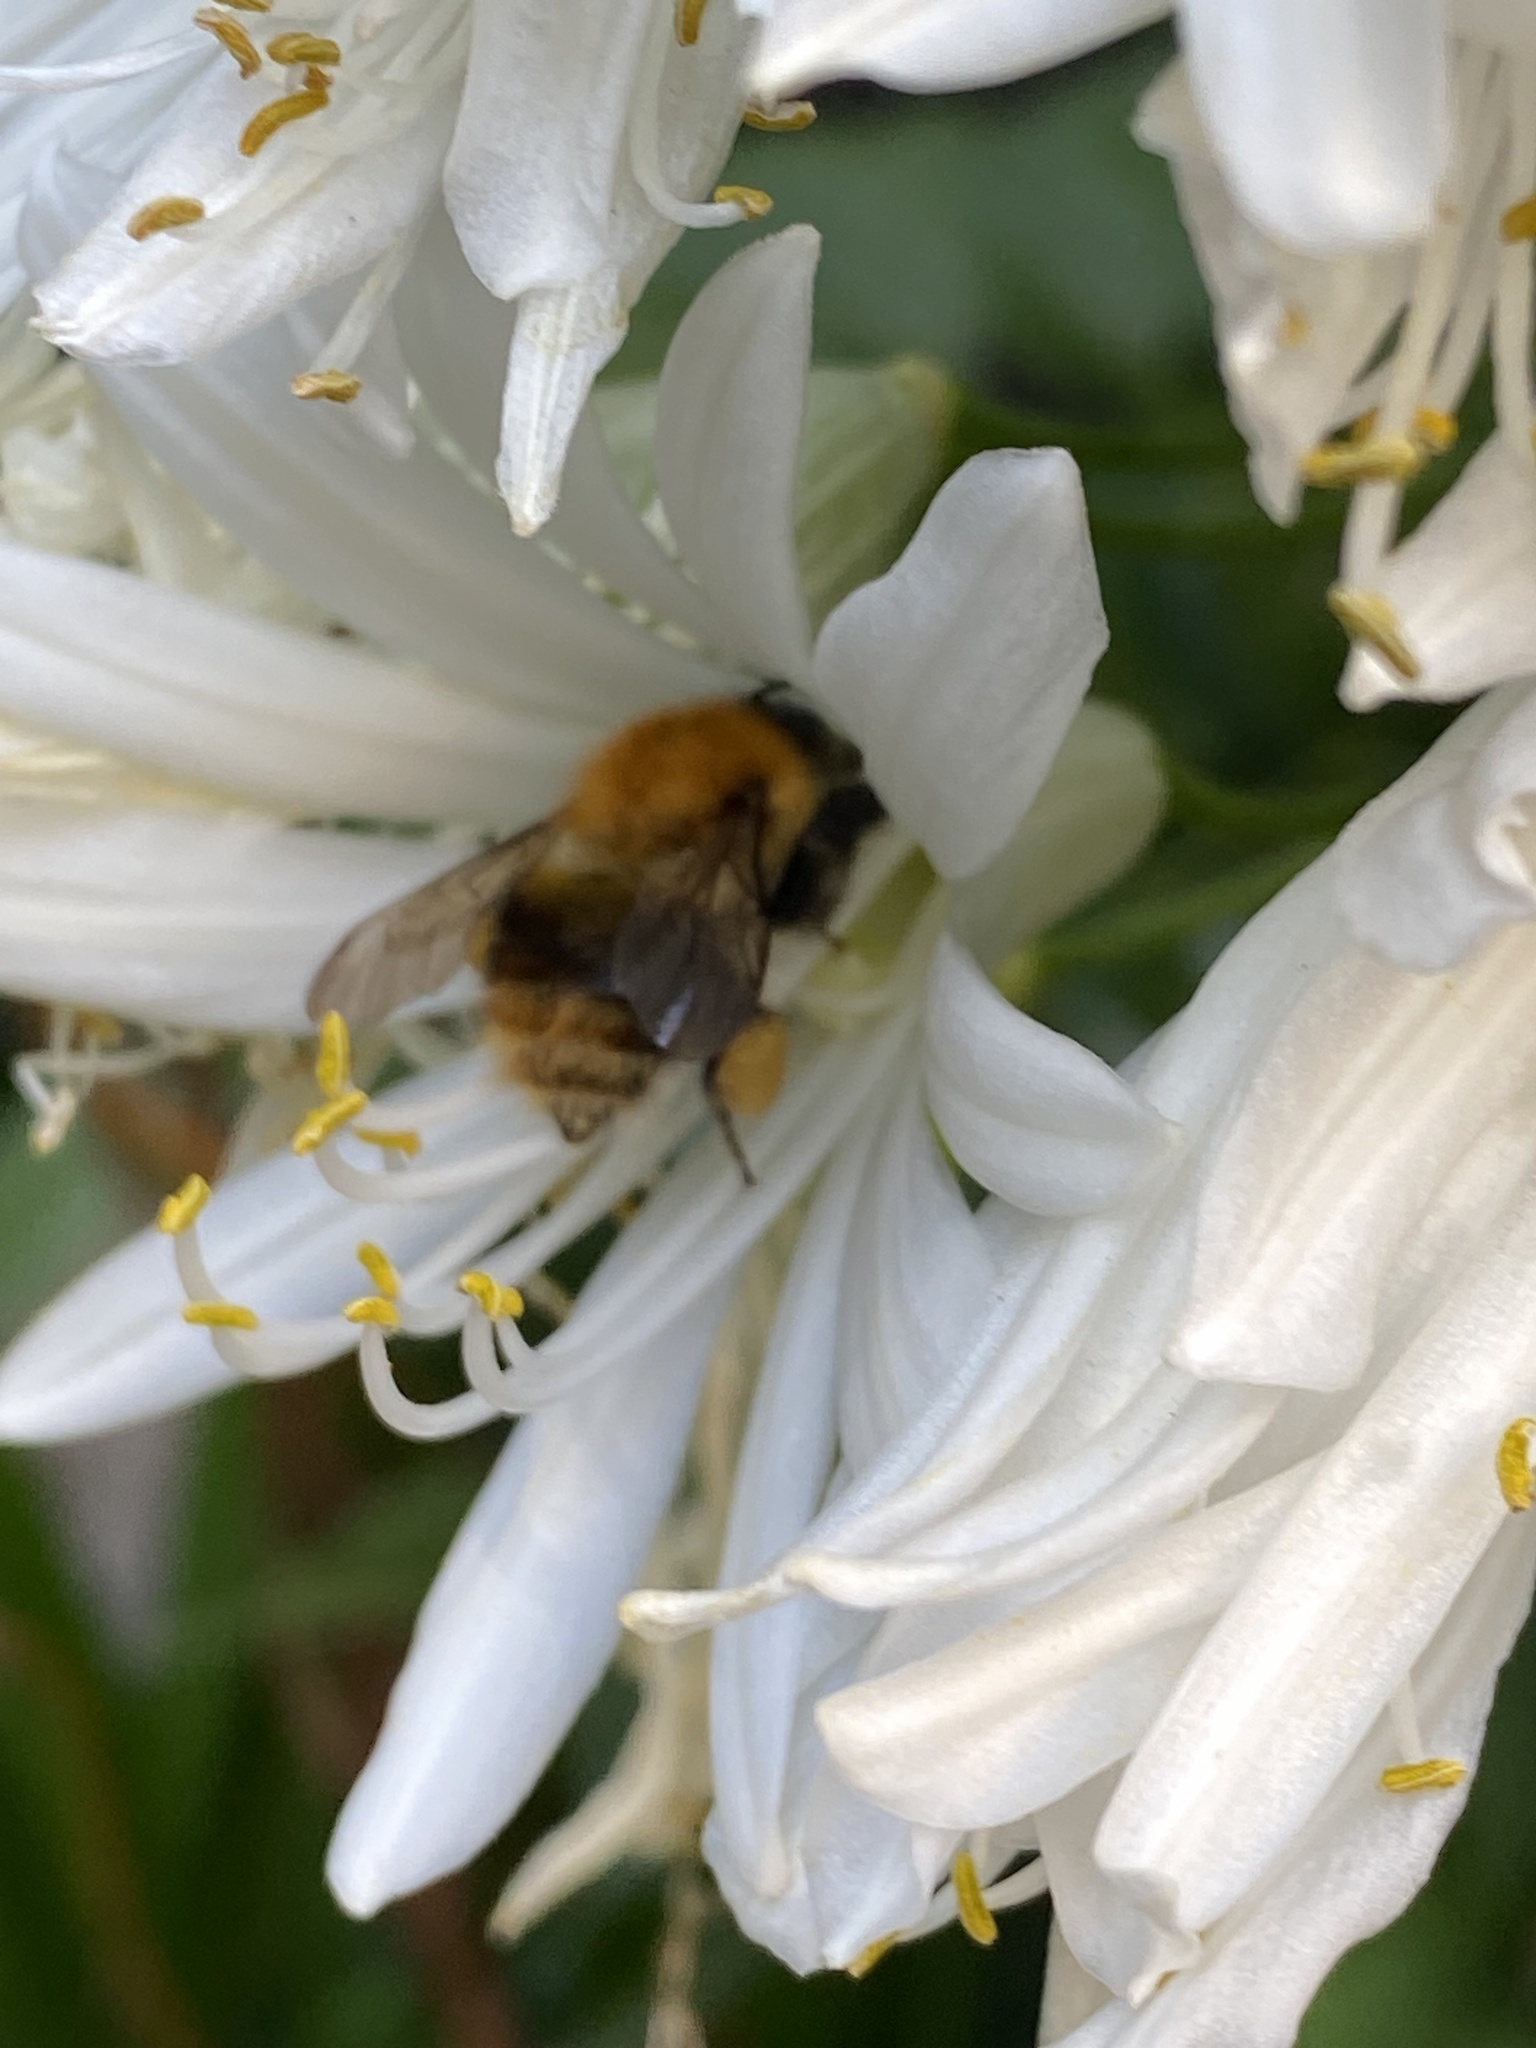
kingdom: Animalia
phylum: Arthropoda
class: Insecta
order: Hymenoptera
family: Apidae
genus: Bombus
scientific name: Bombus pascuorum
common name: Common carder bee
